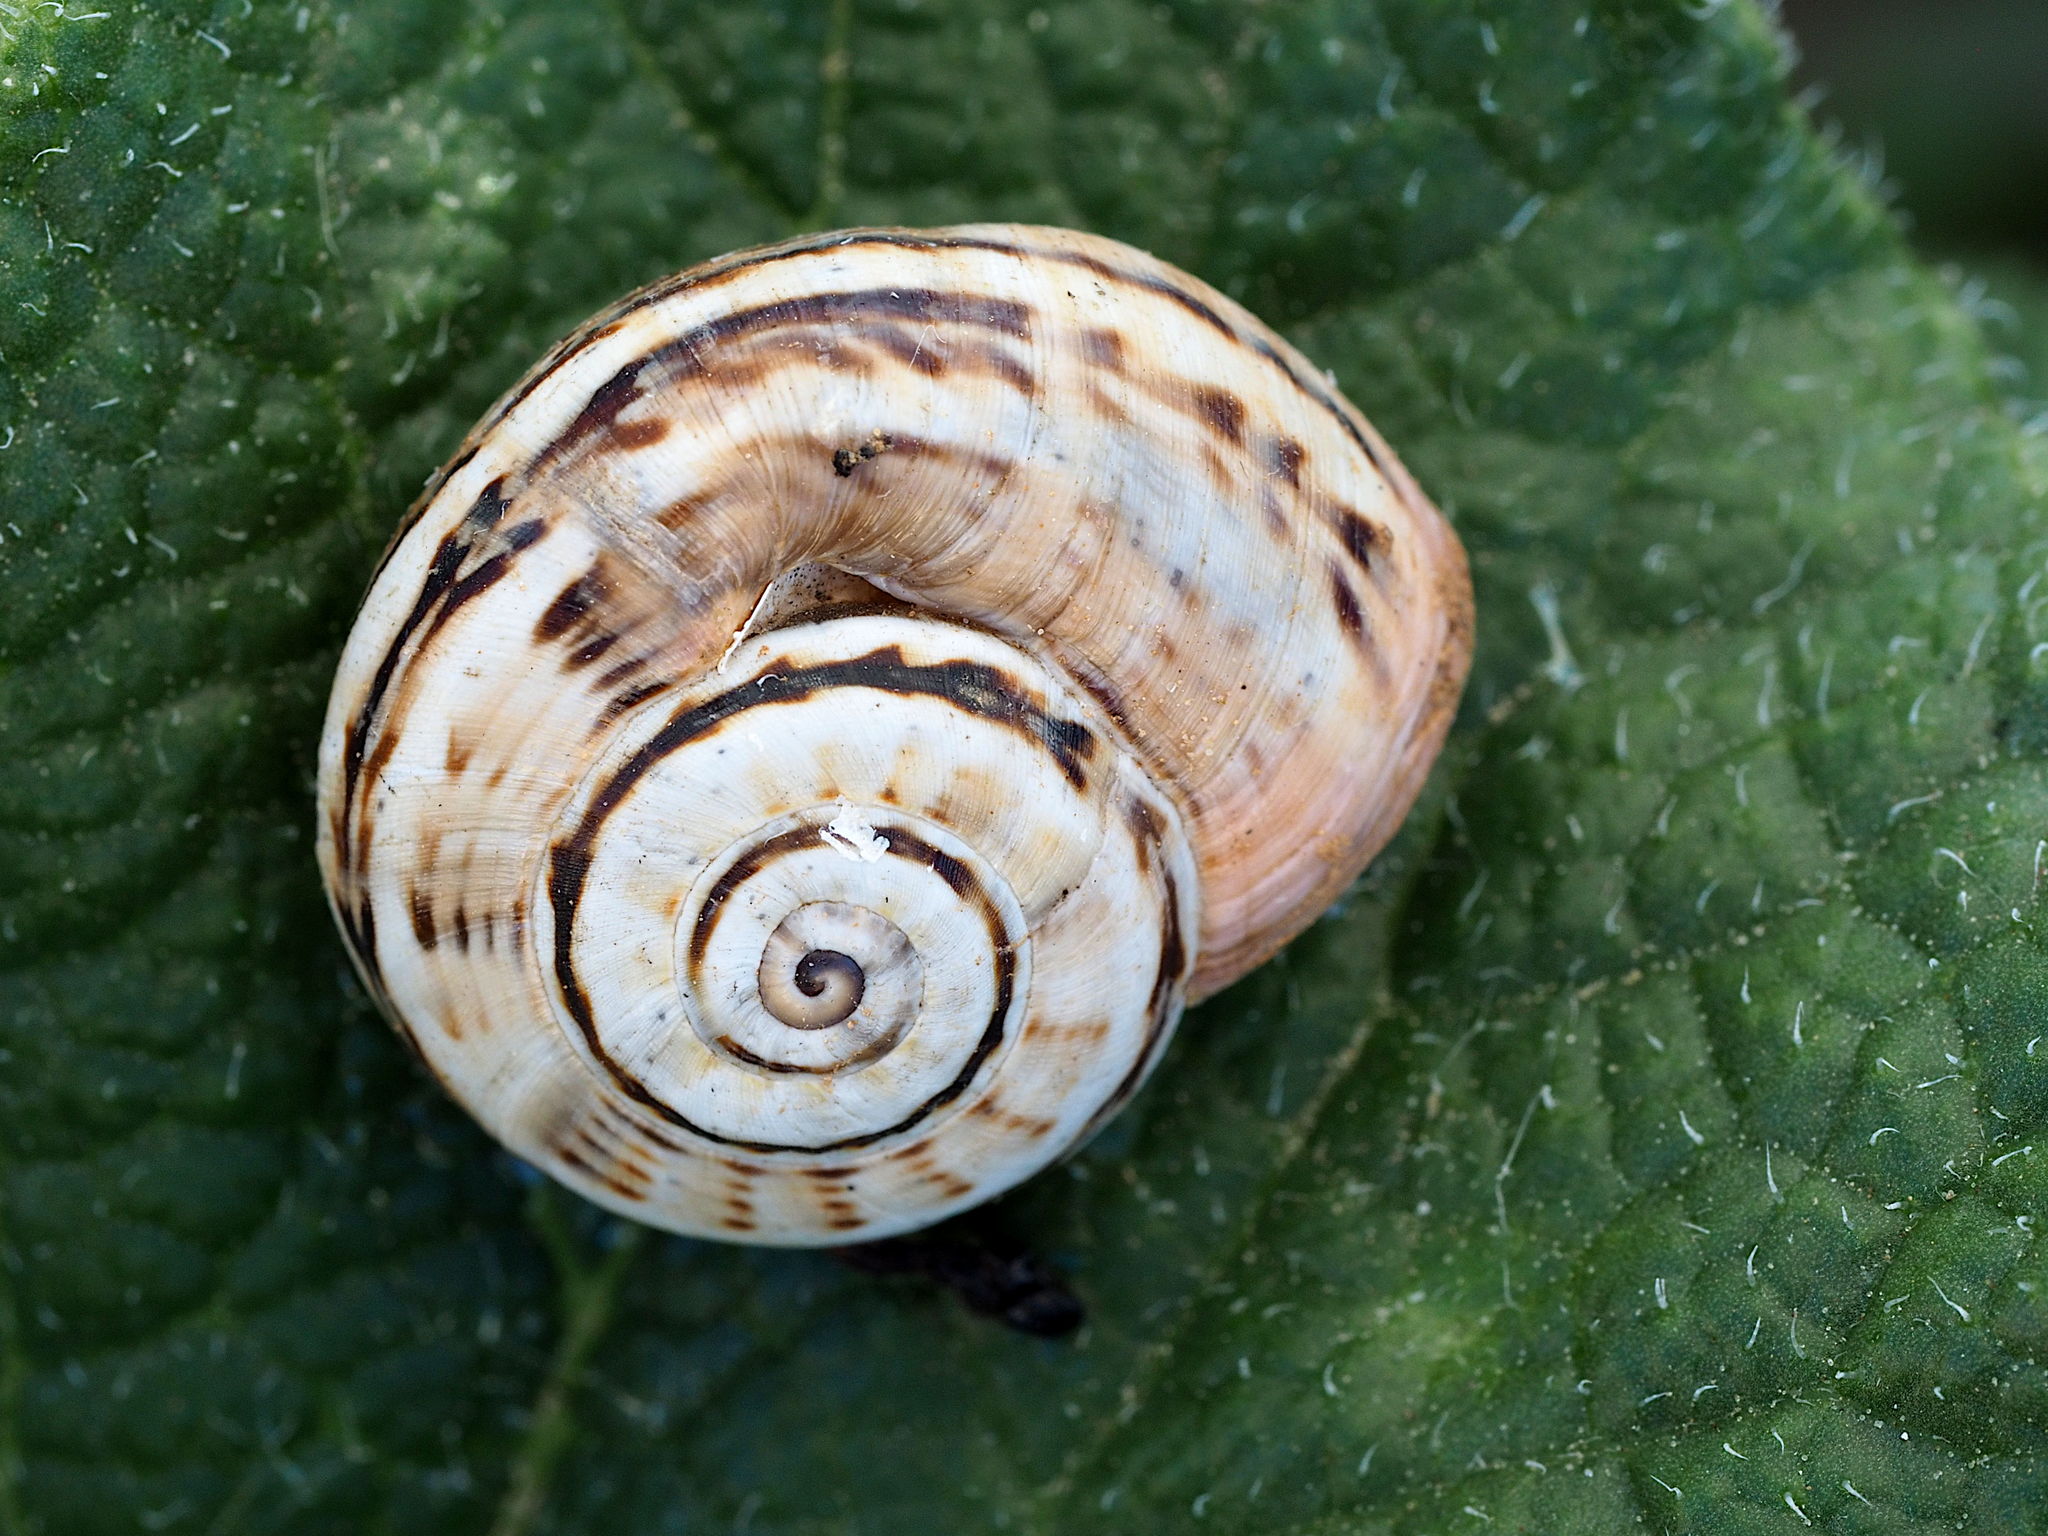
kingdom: Animalia
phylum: Mollusca
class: Gastropoda
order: Stylommatophora
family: Helicidae
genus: Theba
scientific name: Theba pisana
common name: White snail
